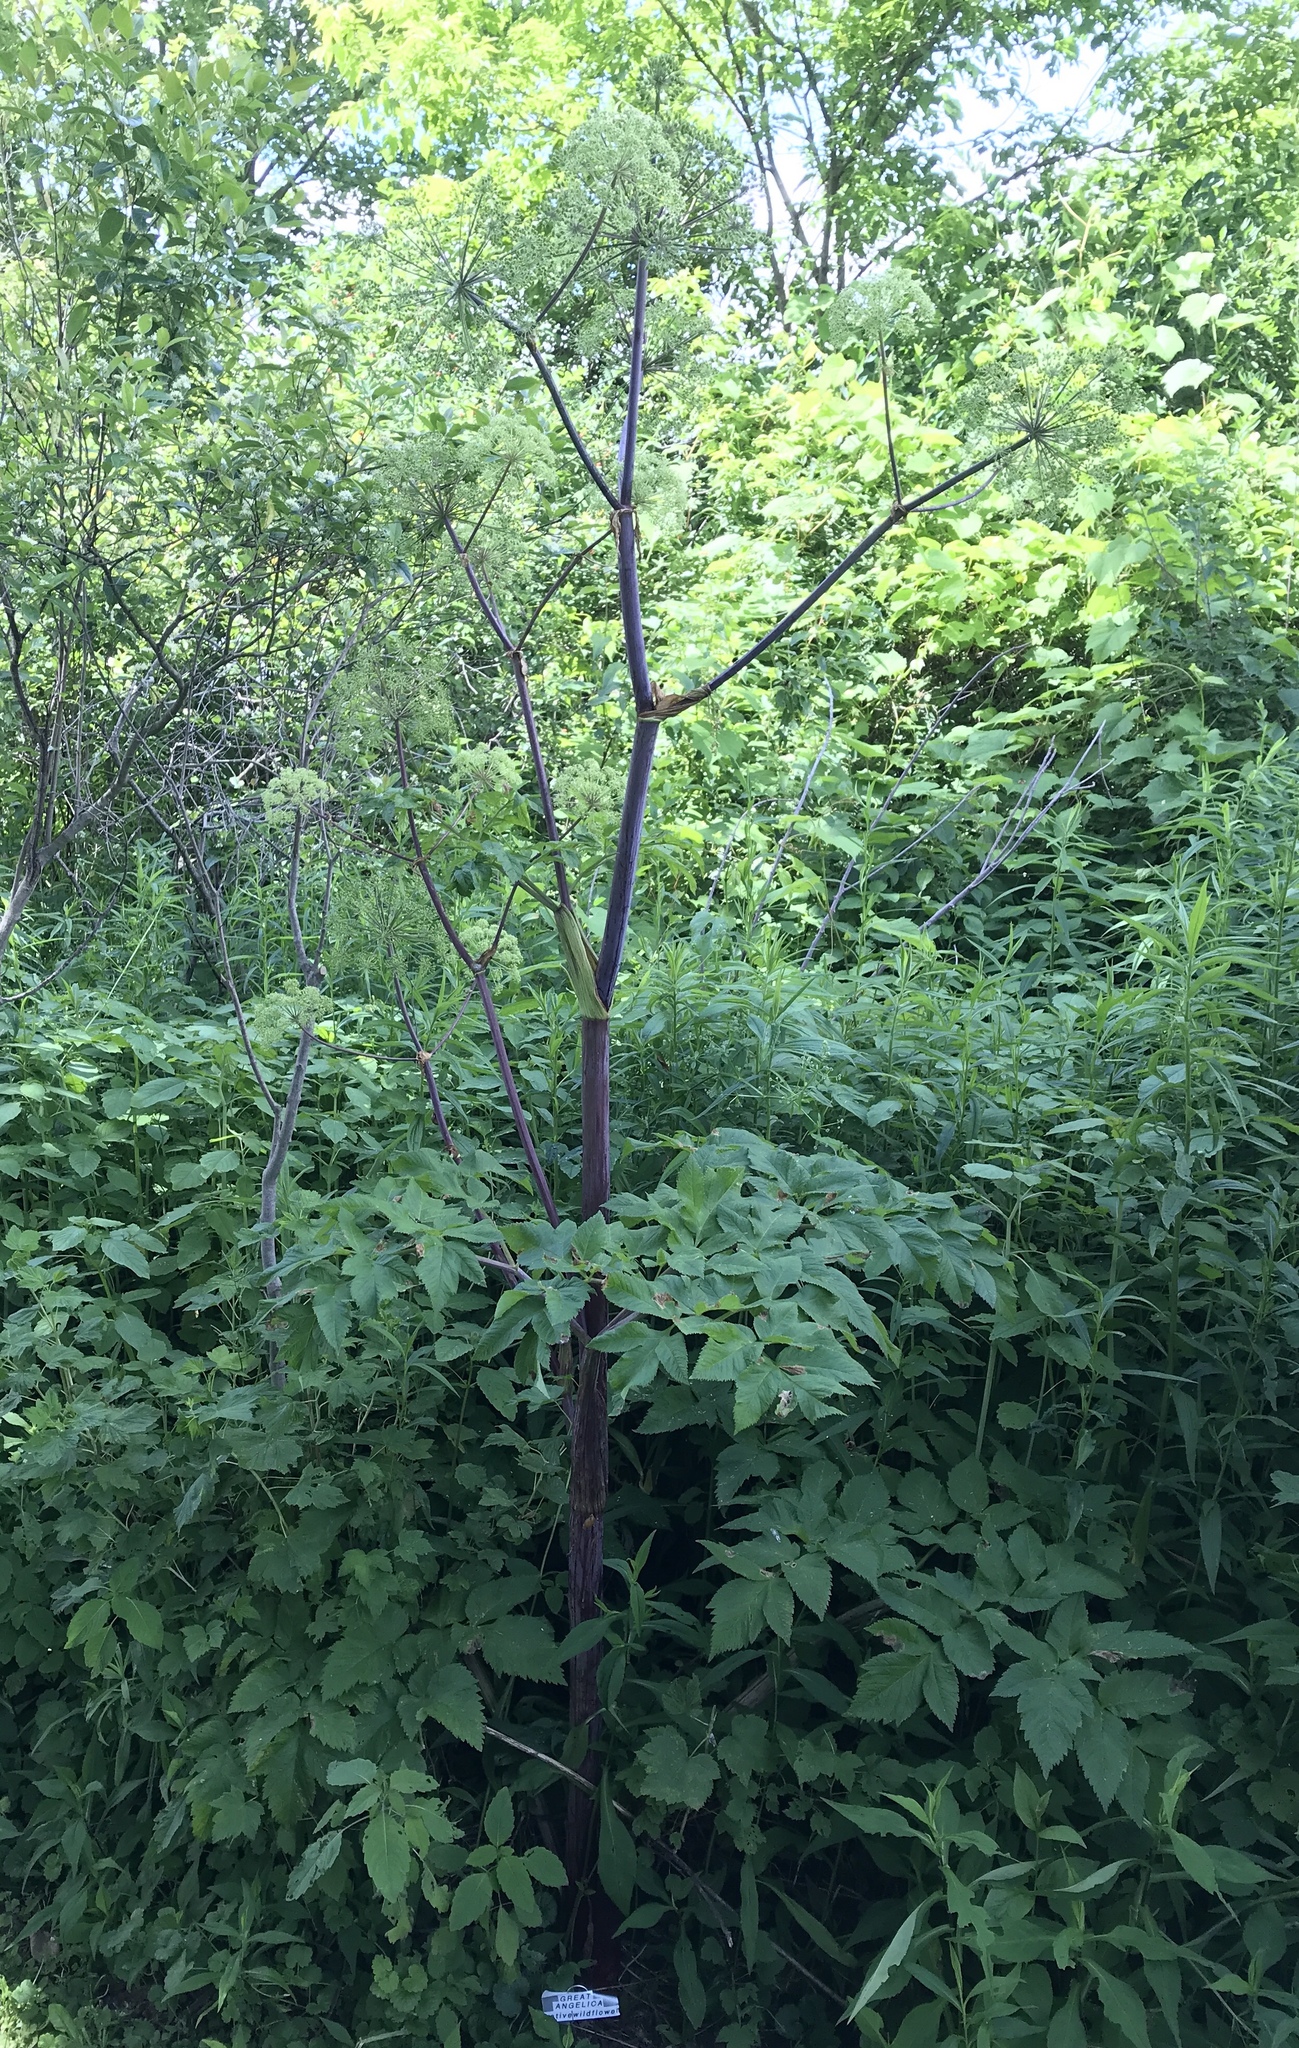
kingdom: Plantae
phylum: Tracheophyta
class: Magnoliopsida
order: Apiales
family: Apiaceae
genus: Angelica
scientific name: Angelica atropurpurea
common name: Great angelica
